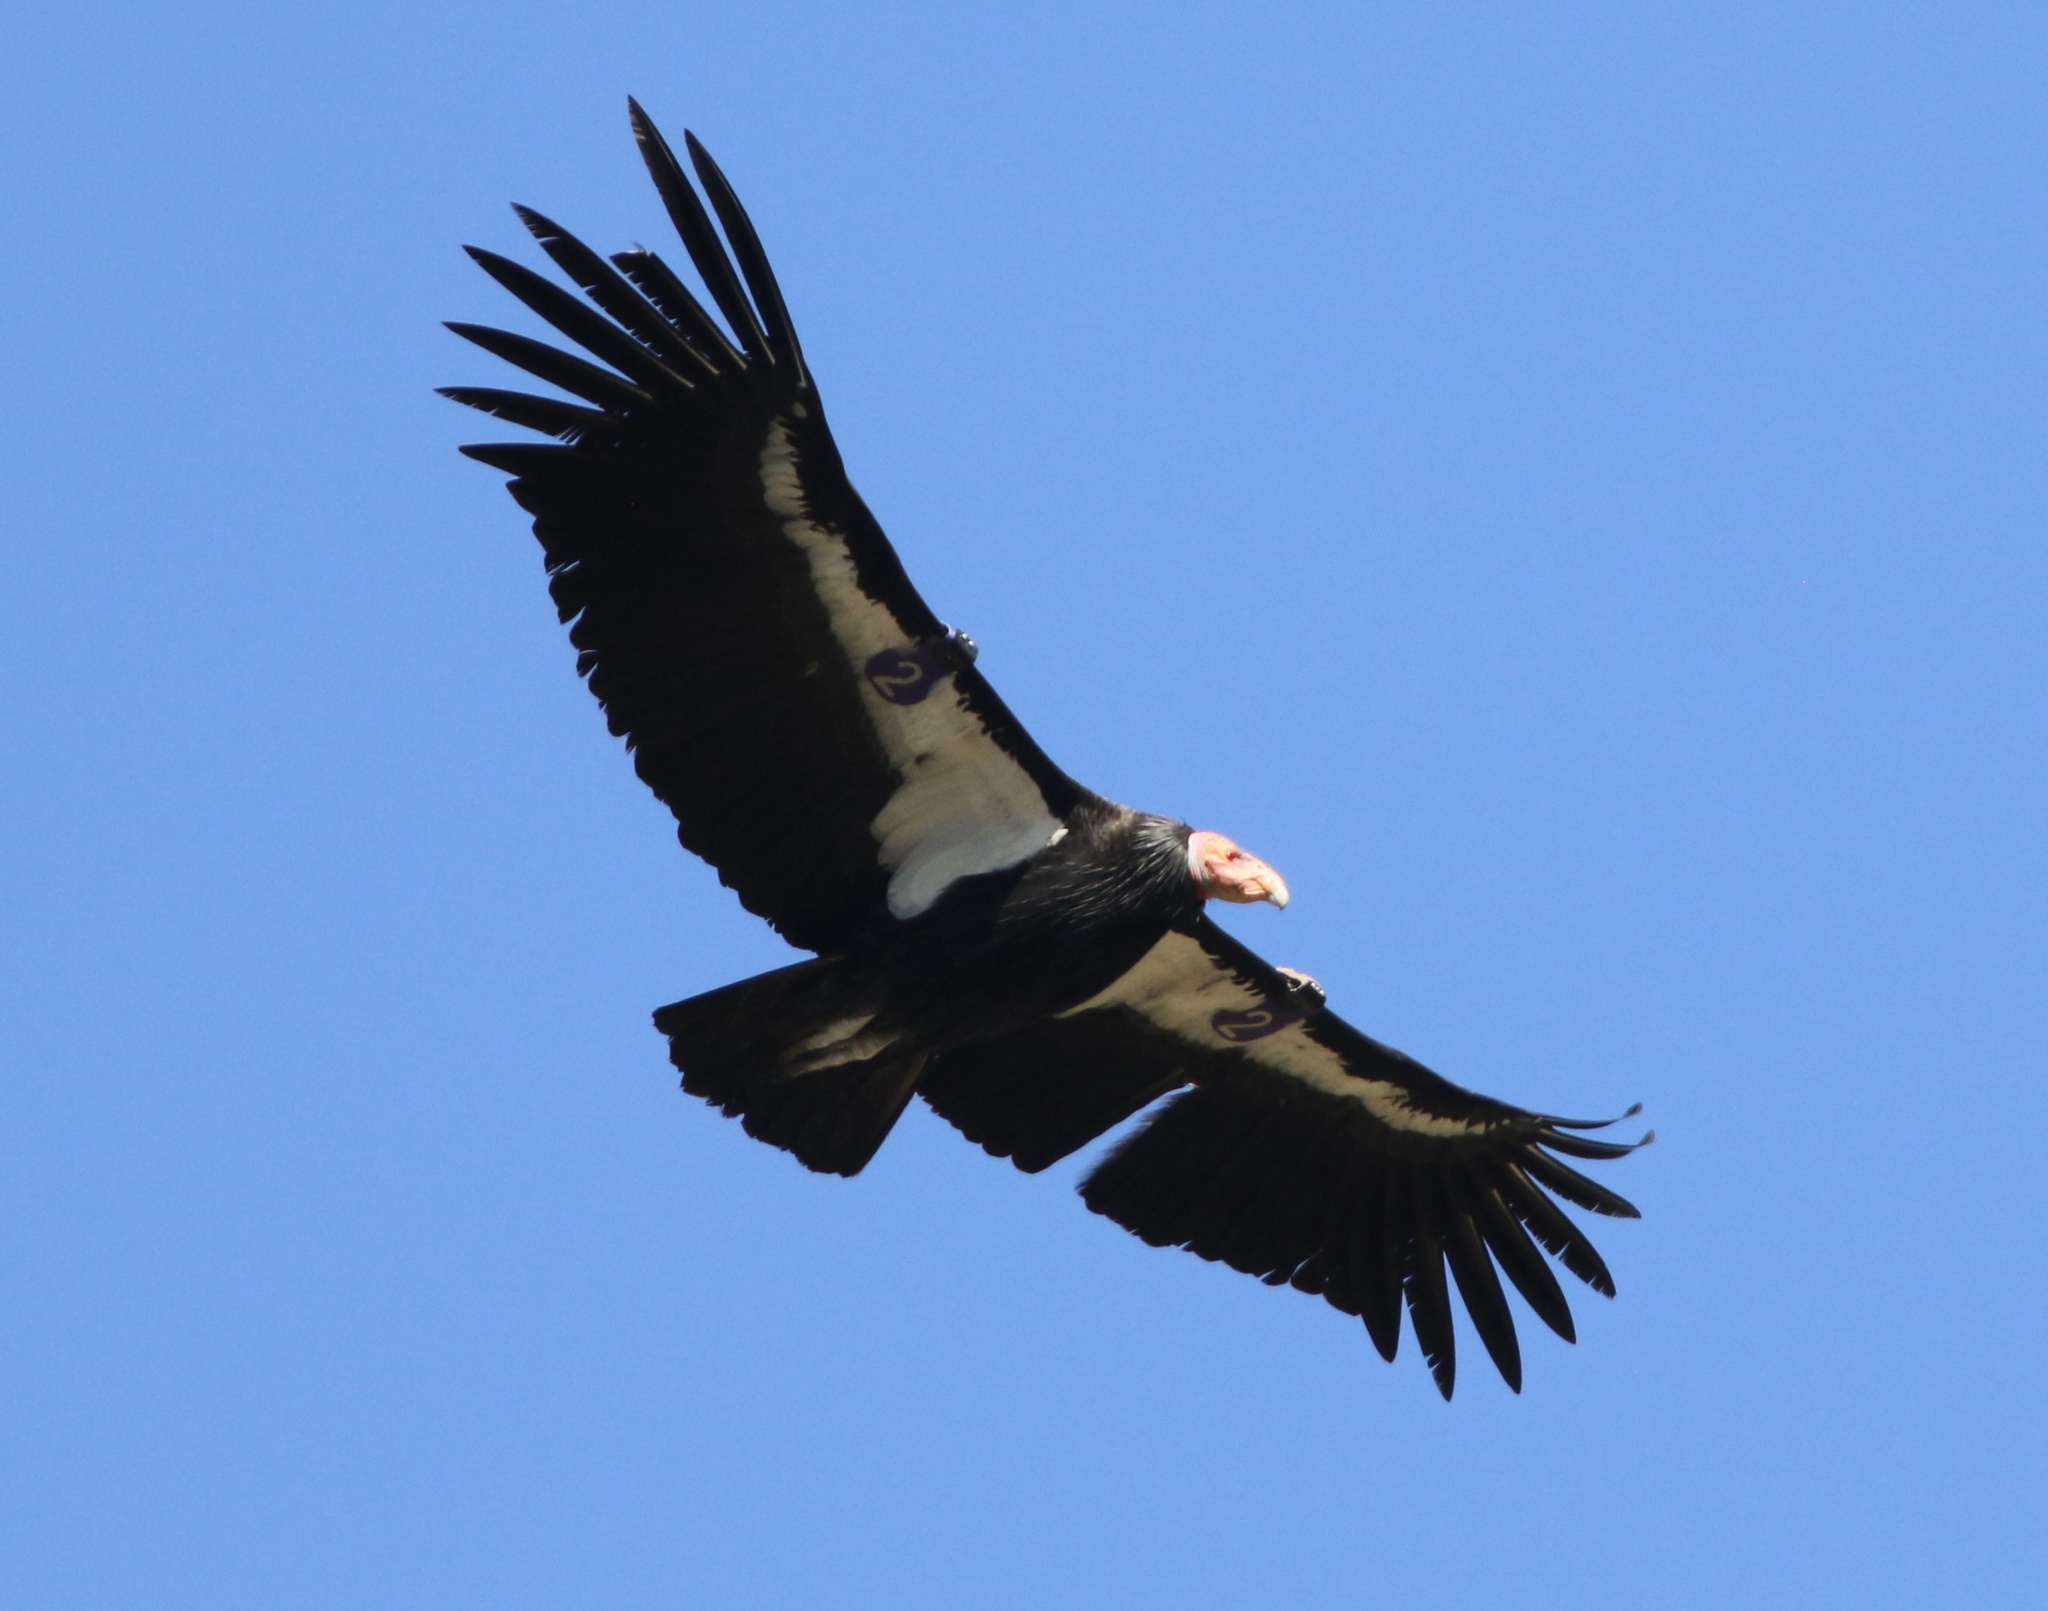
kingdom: Animalia
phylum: Chordata
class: Aves
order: Accipitriformes
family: Cathartidae
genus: Gymnogyps
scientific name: Gymnogyps californianus
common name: California condor
